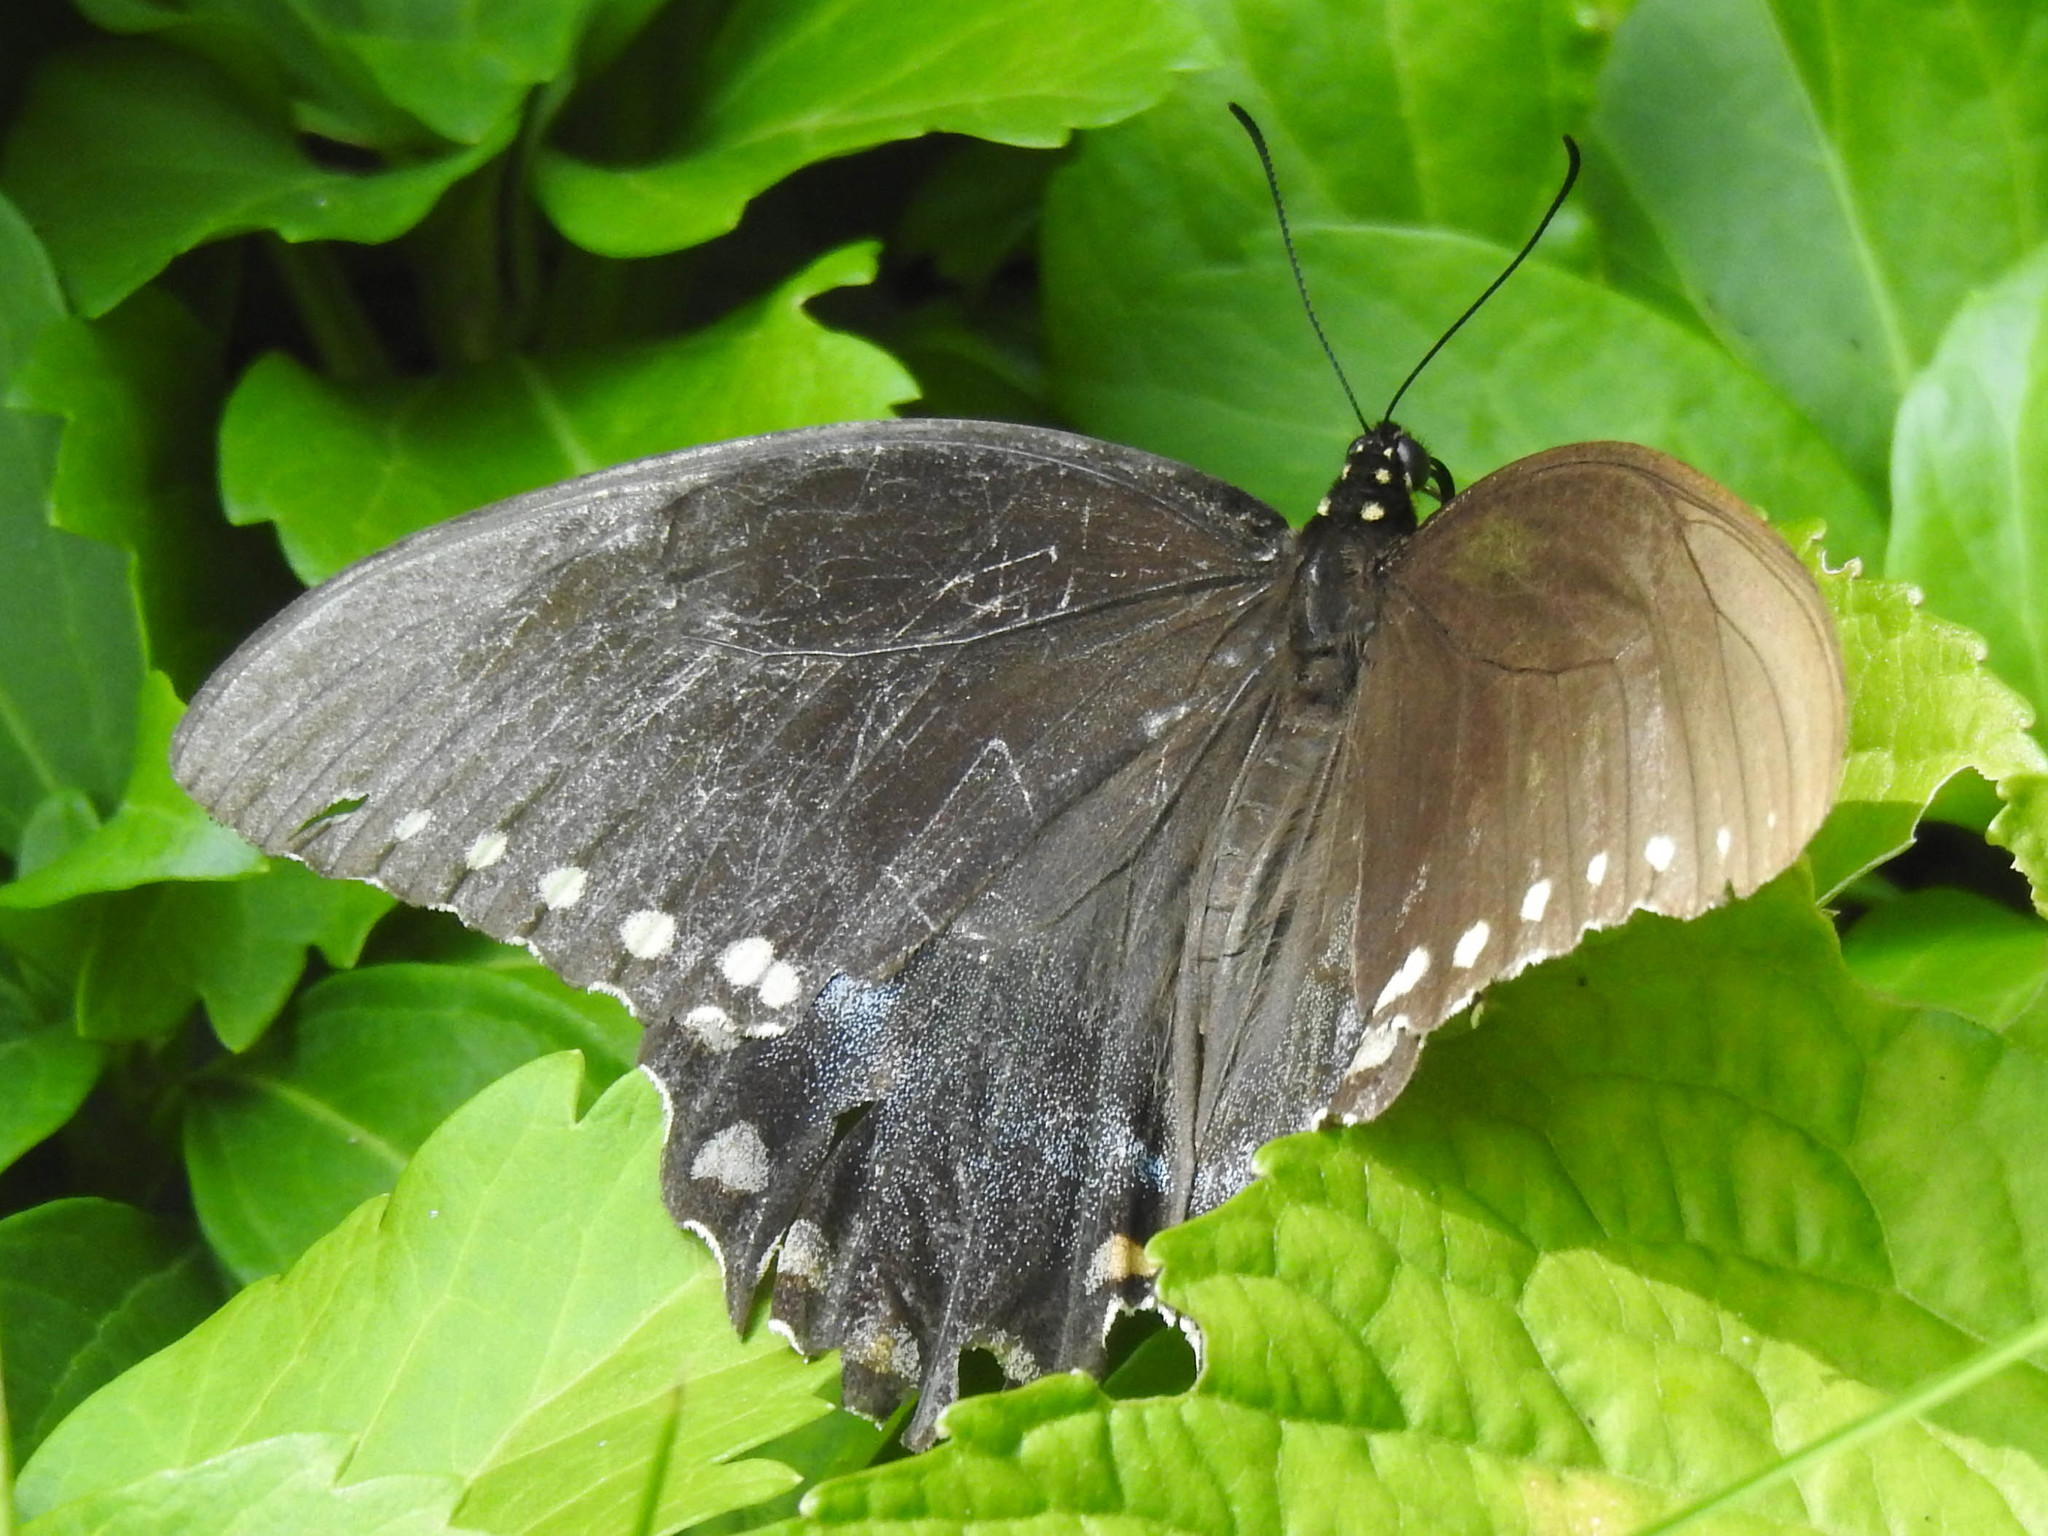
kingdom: Animalia
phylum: Arthropoda
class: Insecta
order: Lepidoptera
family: Papilionidae
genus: Papilio
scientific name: Papilio troilus
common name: Spicebush swallowtail
